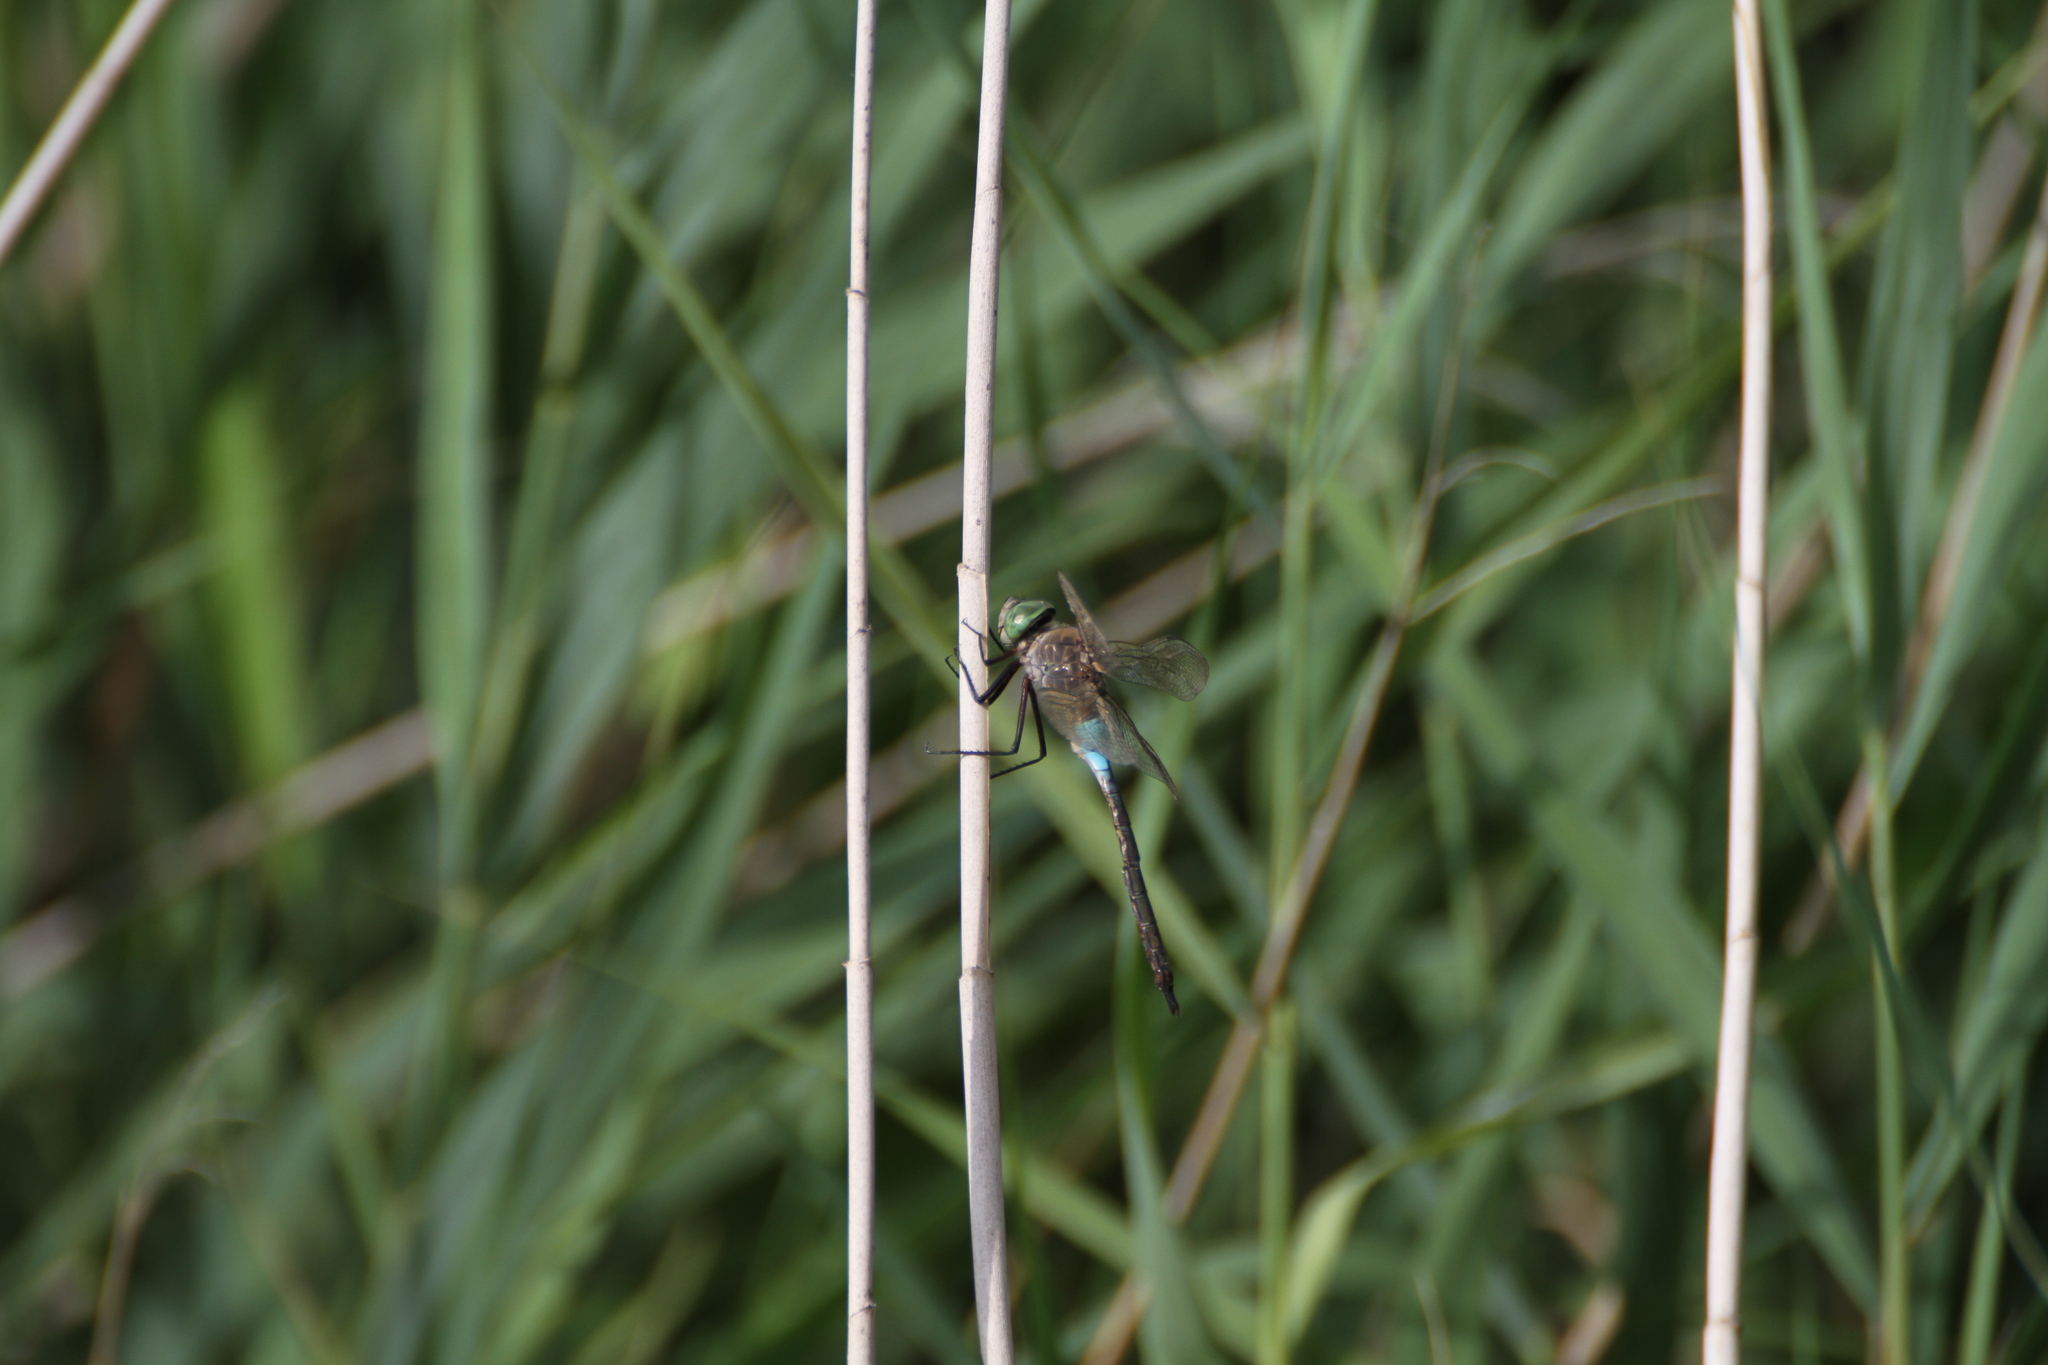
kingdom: Animalia
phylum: Arthropoda
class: Insecta
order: Odonata
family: Aeshnidae
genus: Anax
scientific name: Anax parthenope
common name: Lesser emperor
